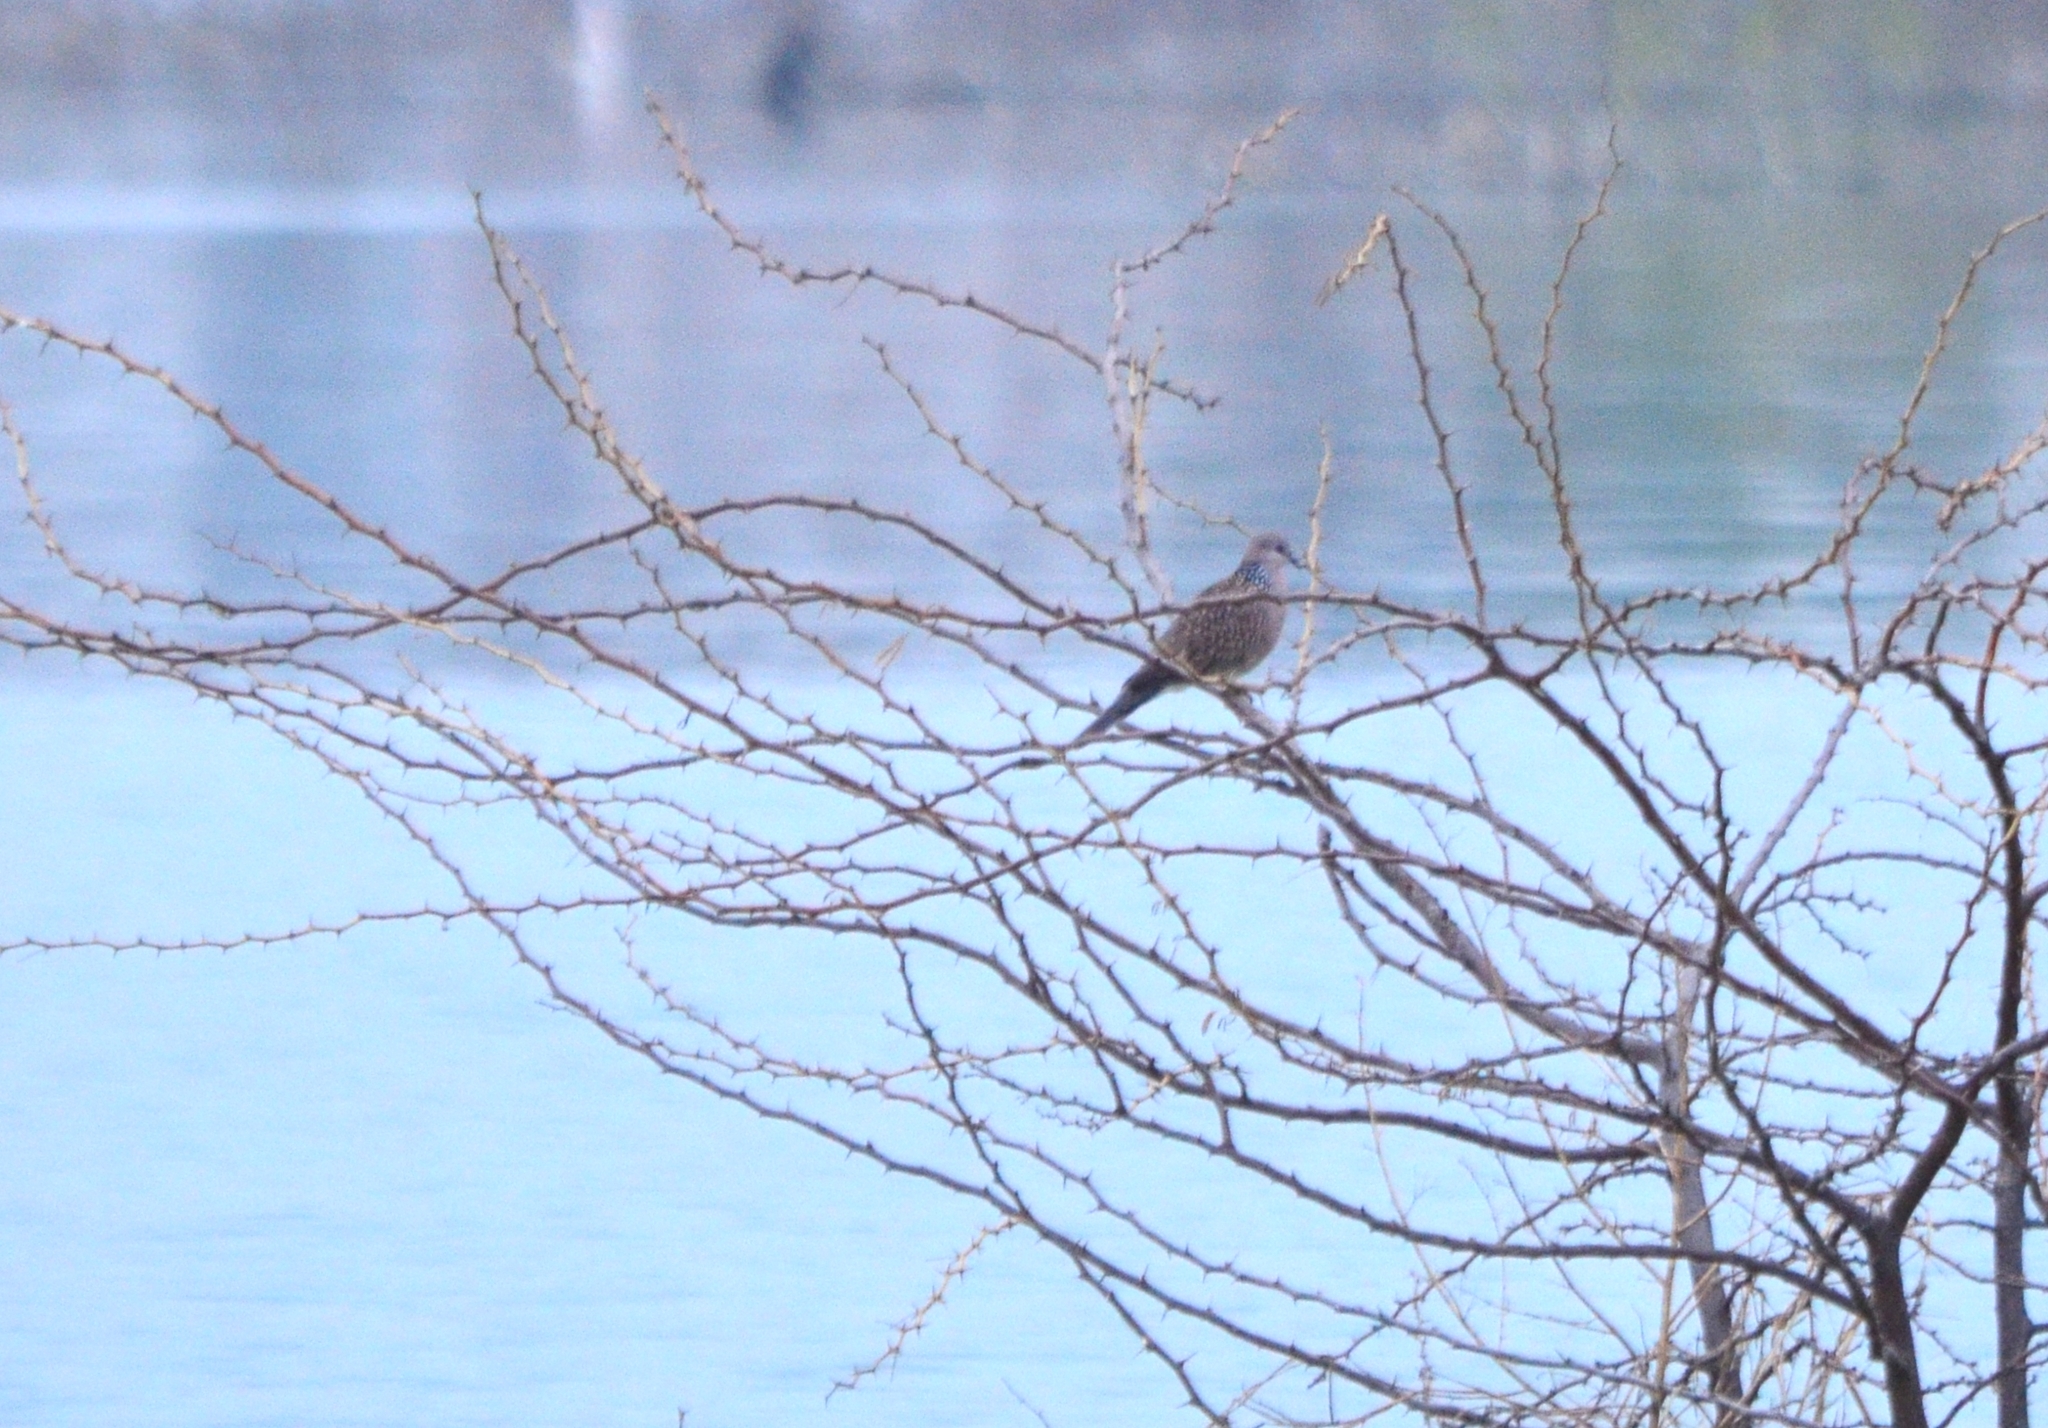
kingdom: Animalia
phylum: Chordata
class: Aves
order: Columbiformes
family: Columbidae
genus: Spilopelia
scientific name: Spilopelia chinensis
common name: Spotted dove
